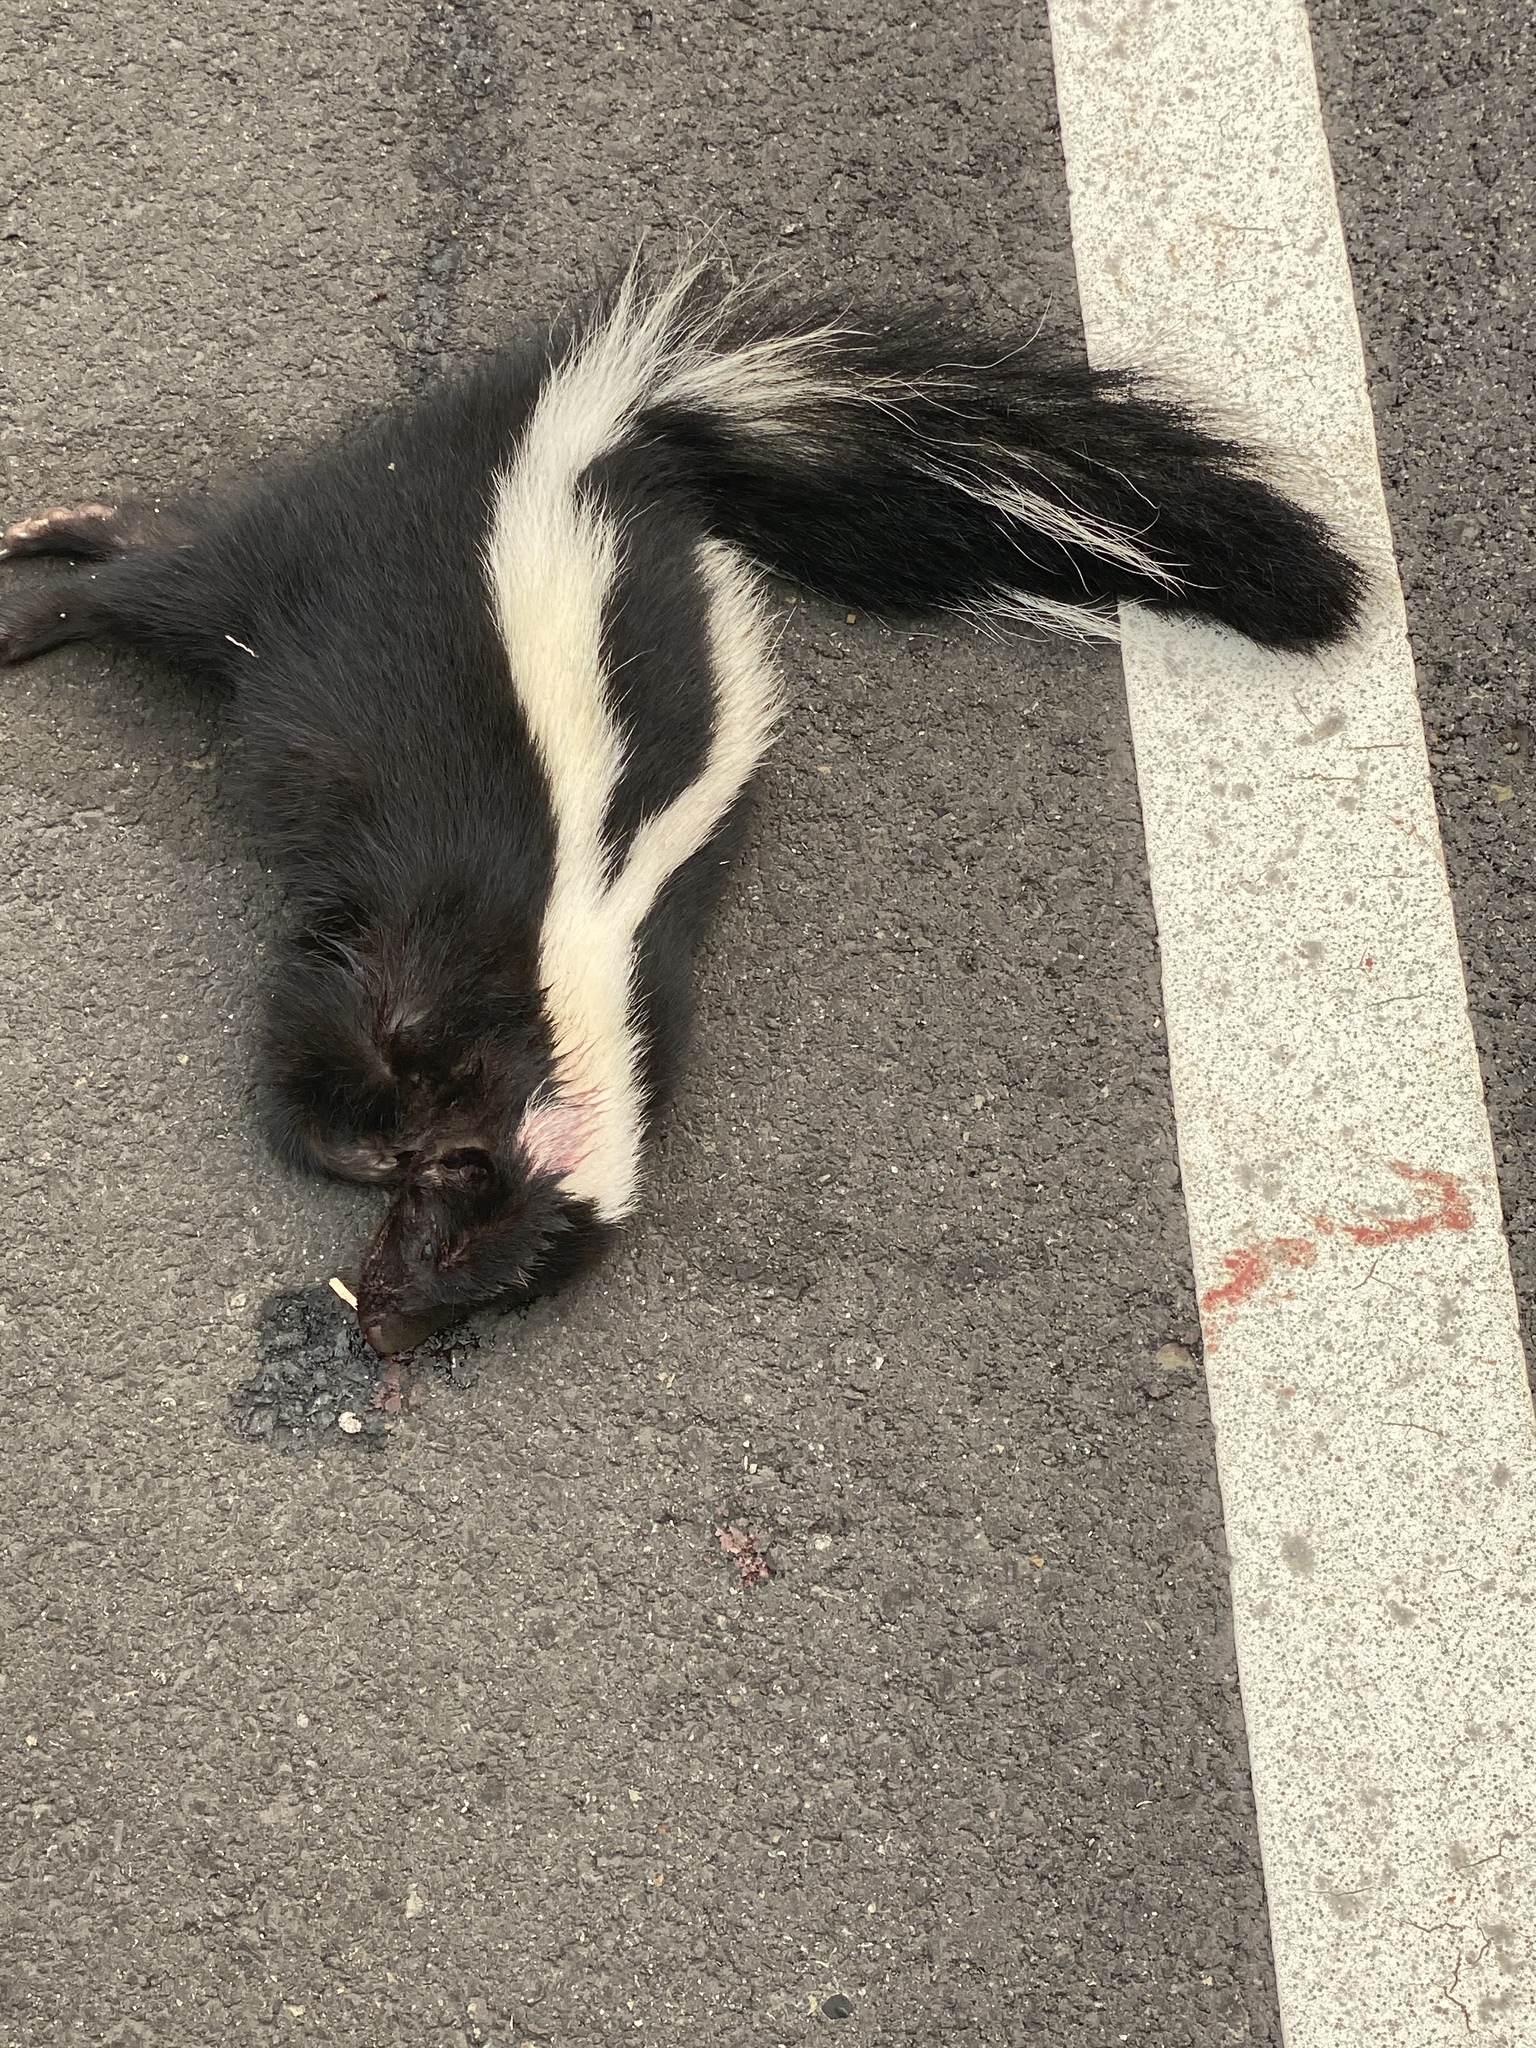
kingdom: Animalia
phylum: Chordata
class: Mammalia
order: Carnivora
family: Mephitidae
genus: Mephitis
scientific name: Mephitis mephitis
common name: Striped skunk
